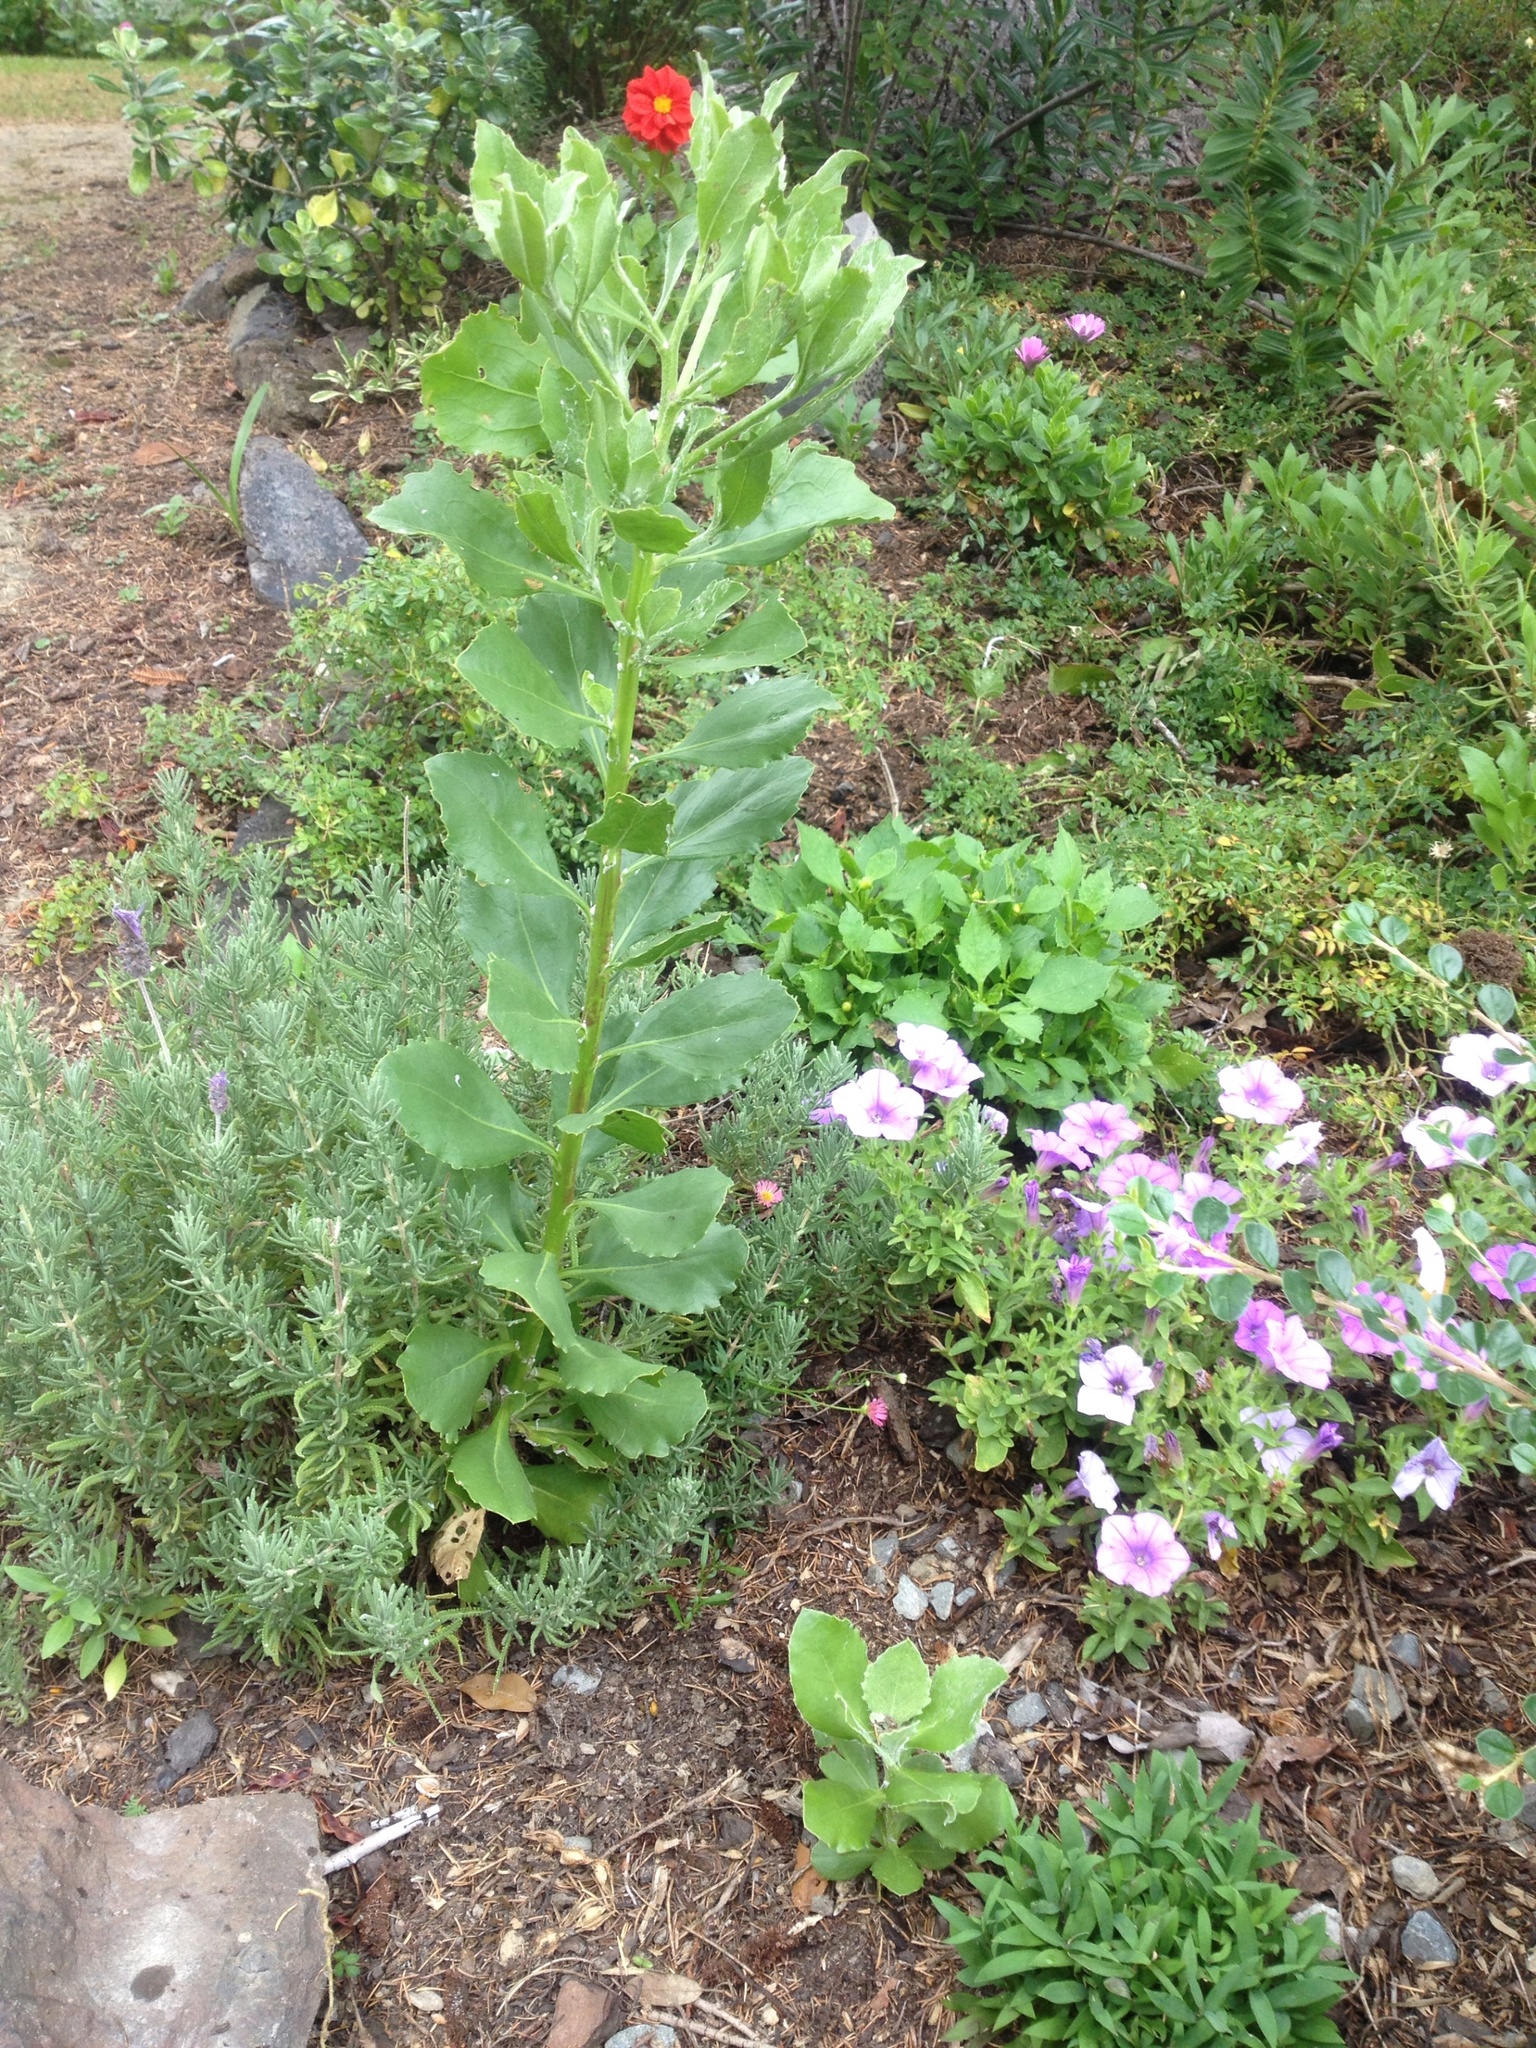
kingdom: Plantae
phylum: Tracheophyta
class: Magnoliopsida
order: Asterales
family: Asteraceae
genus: Osteospermum
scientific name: Osteospermum moniliferum
